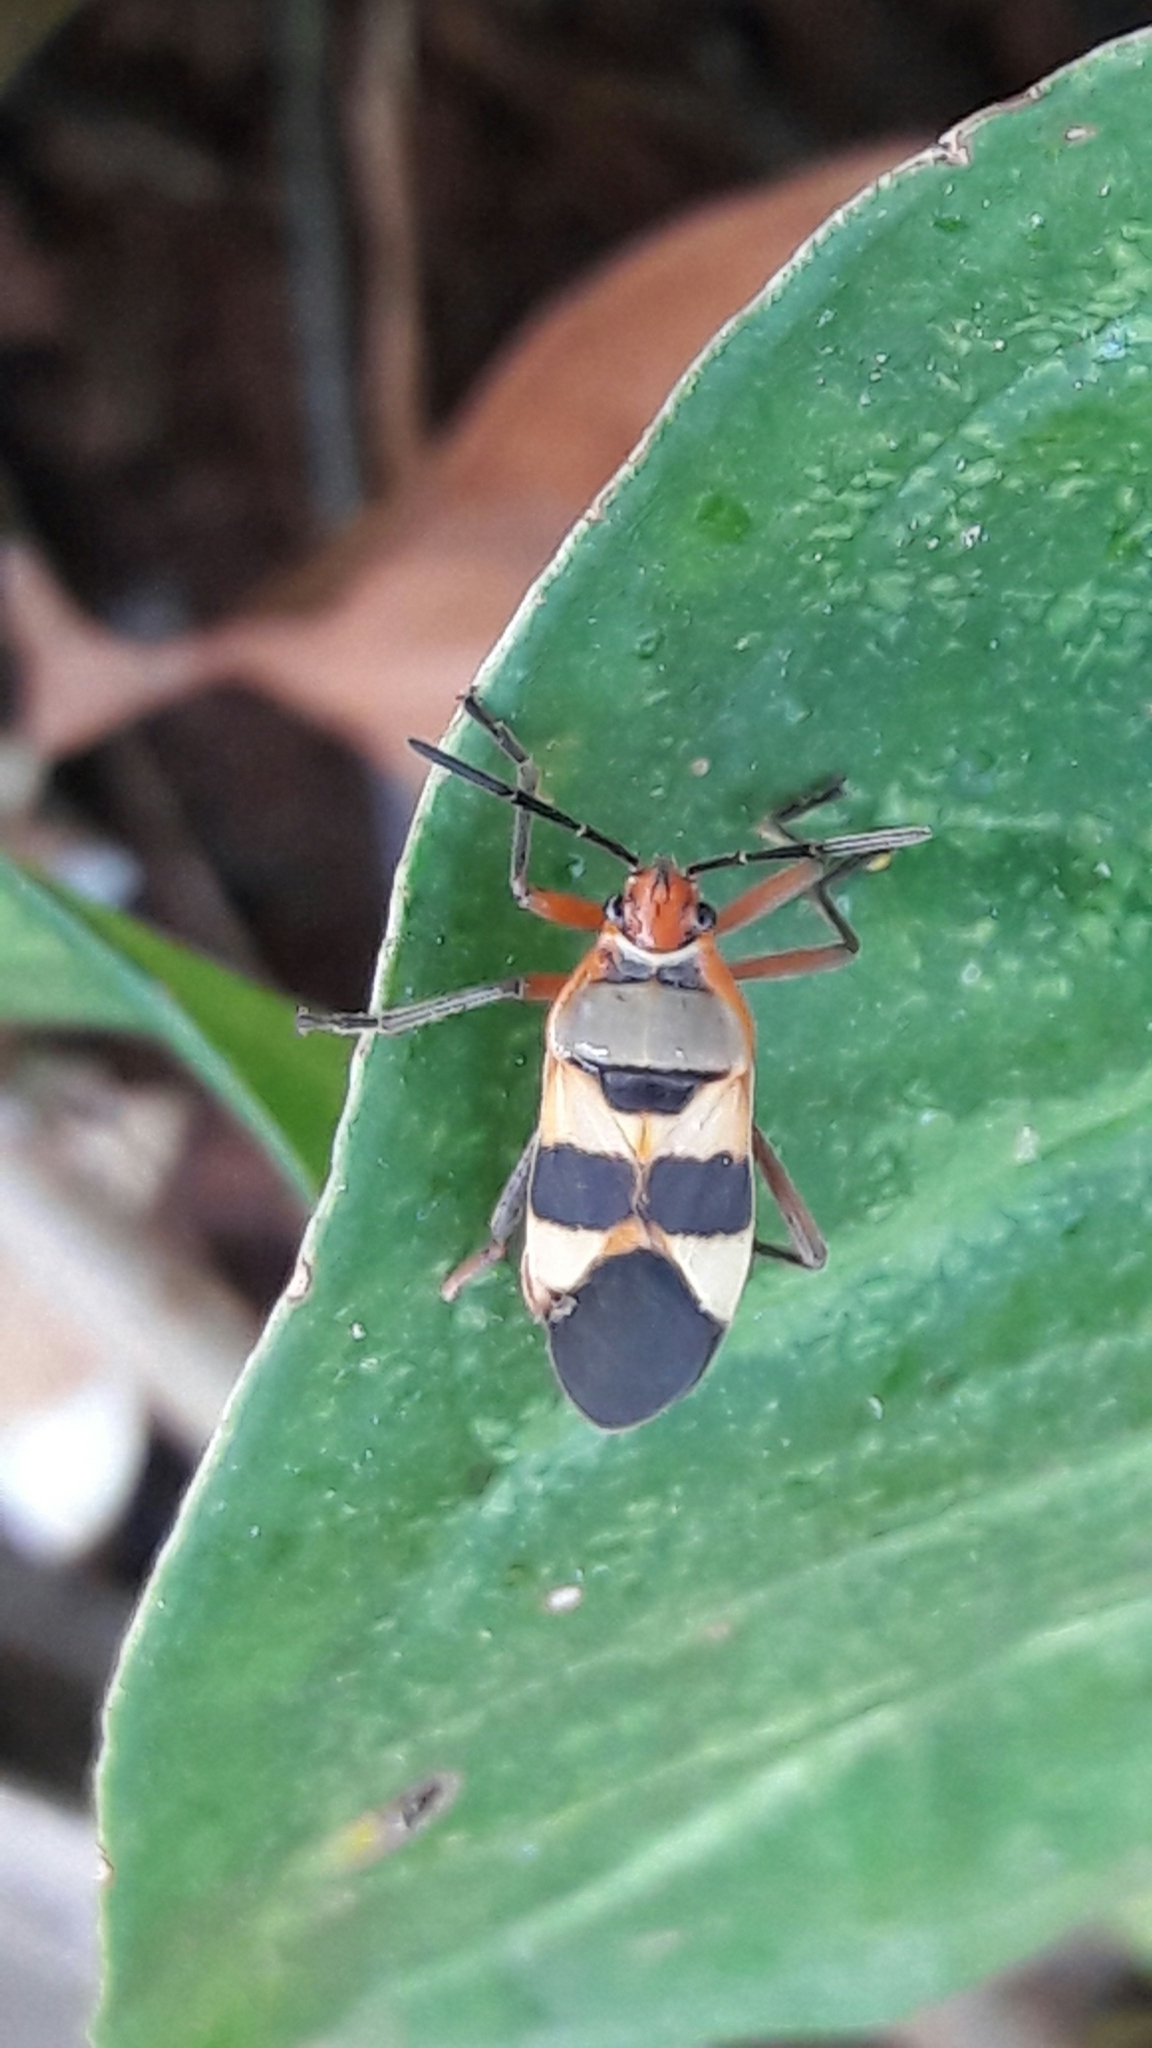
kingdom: Animalia
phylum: Arthropoda
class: Insecta
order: Hemiptera
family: Lygaeidae
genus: Oncopeltus
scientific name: Oncopeltus unifasciatellus
